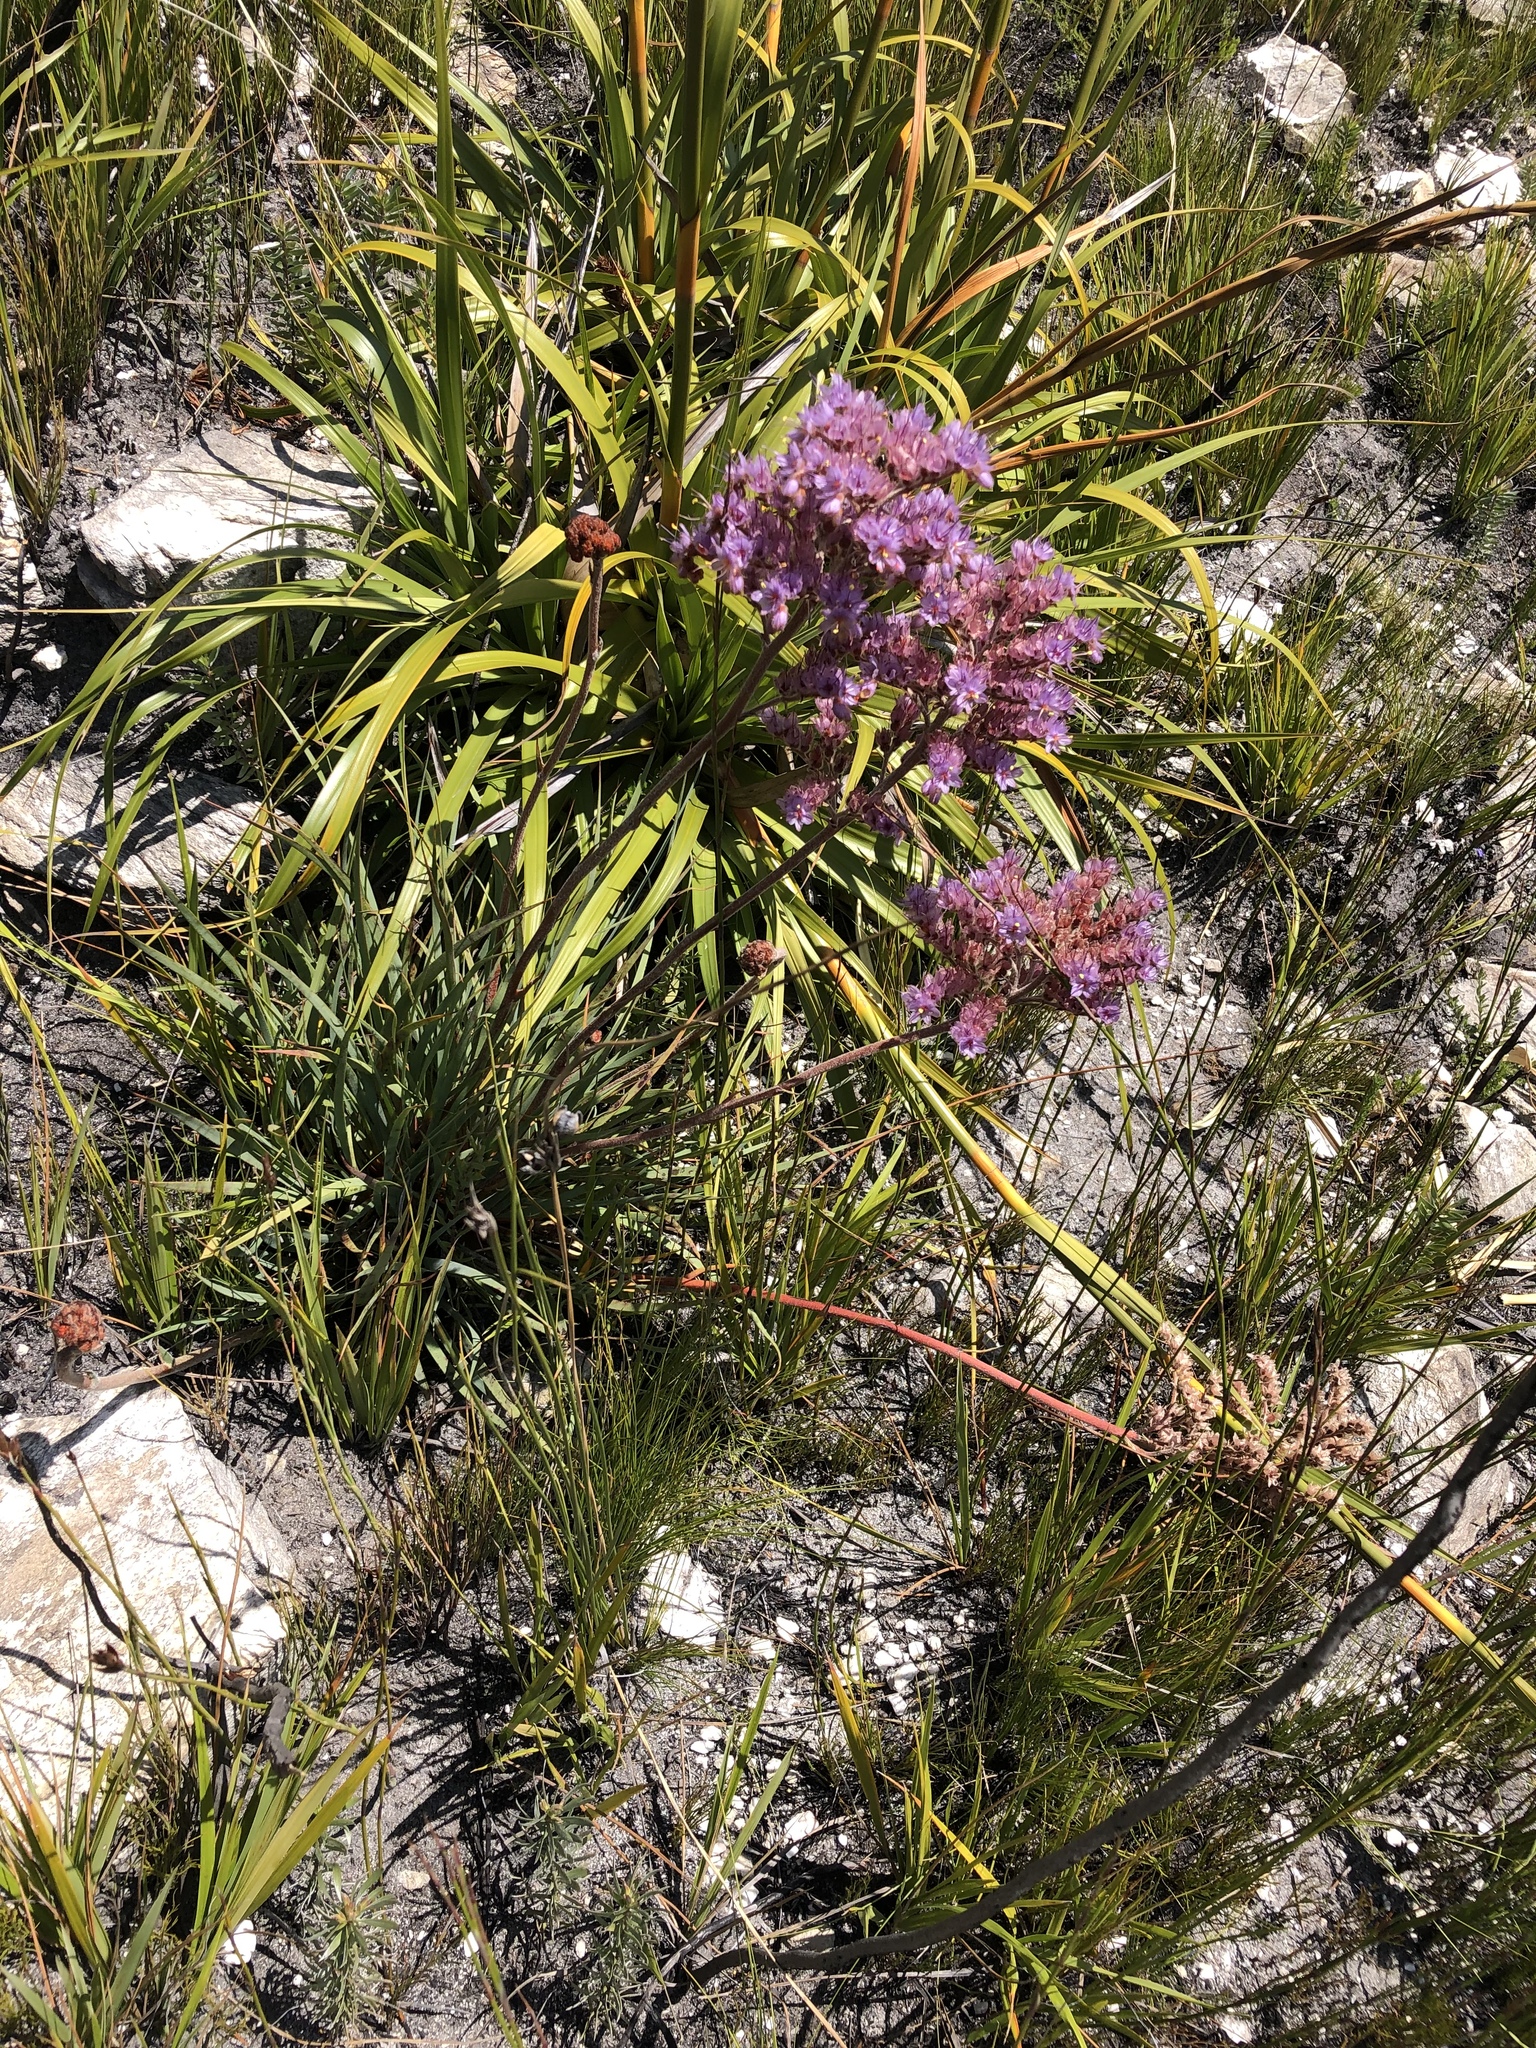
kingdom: Plantae
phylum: Tracheophyta
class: Liliopsida
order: Commelinales
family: Haemodoraceae
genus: Dilatris
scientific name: Dilatris ixioides
